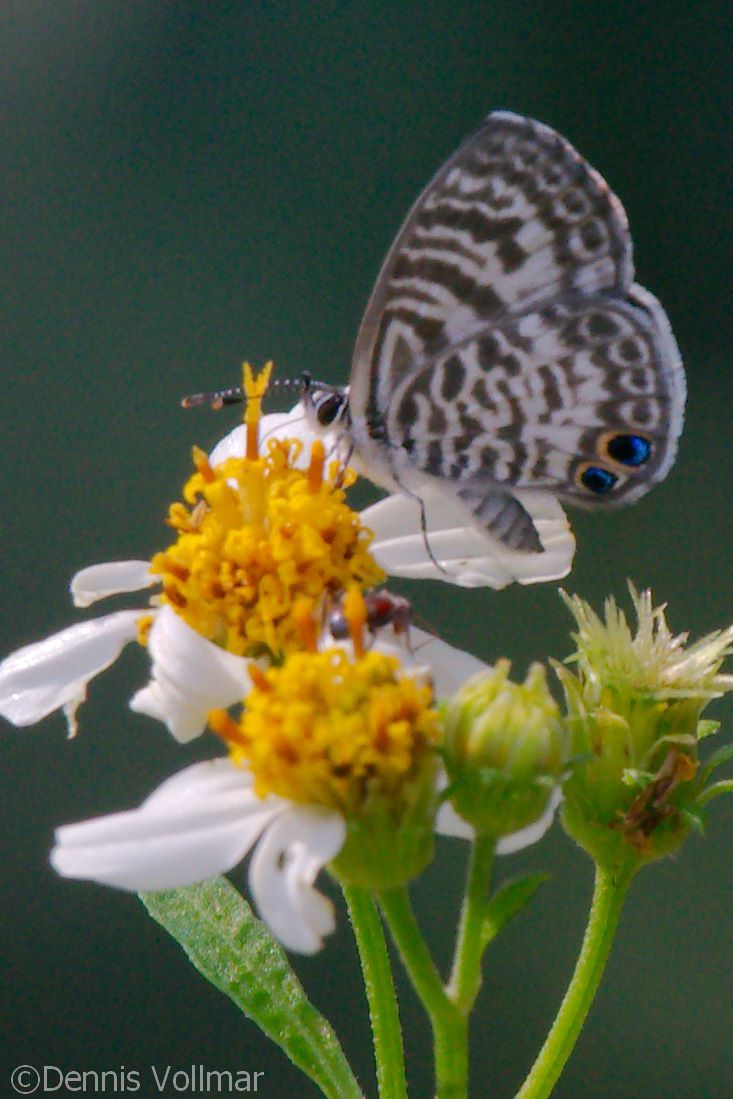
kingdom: Animalia
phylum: Arthropoda
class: Insecta
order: Lepidoptera
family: Lycaenidae
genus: Leptotes
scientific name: Leptotes cassius
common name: Cassius blue
